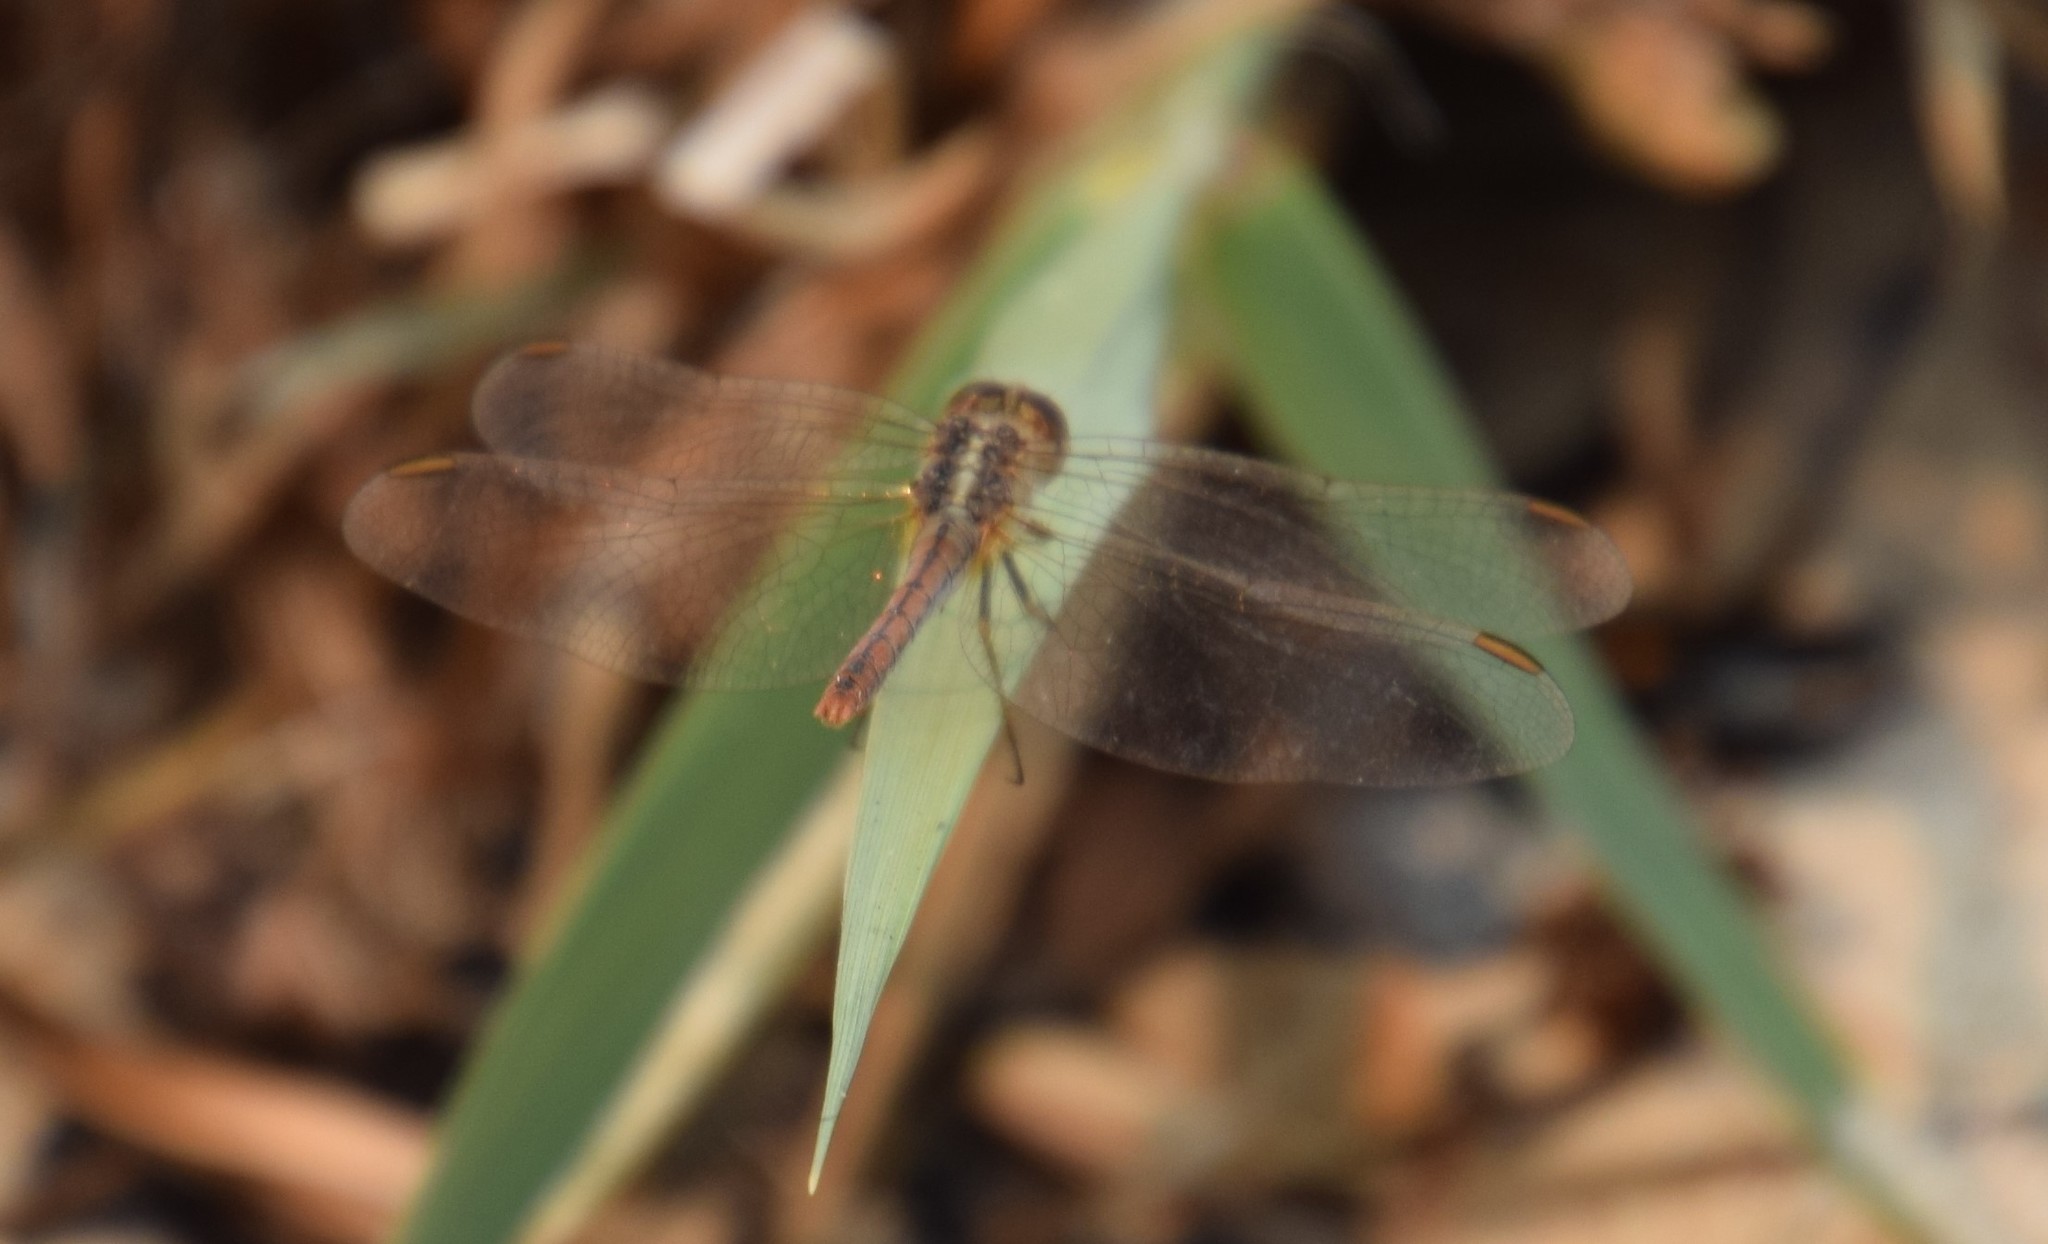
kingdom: Animalia
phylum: Arthropoda
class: Insecta
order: Odonata
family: Libellulidae
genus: Diplacodes
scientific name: Diplacodes bipunctata
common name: Red percher dragonfly
